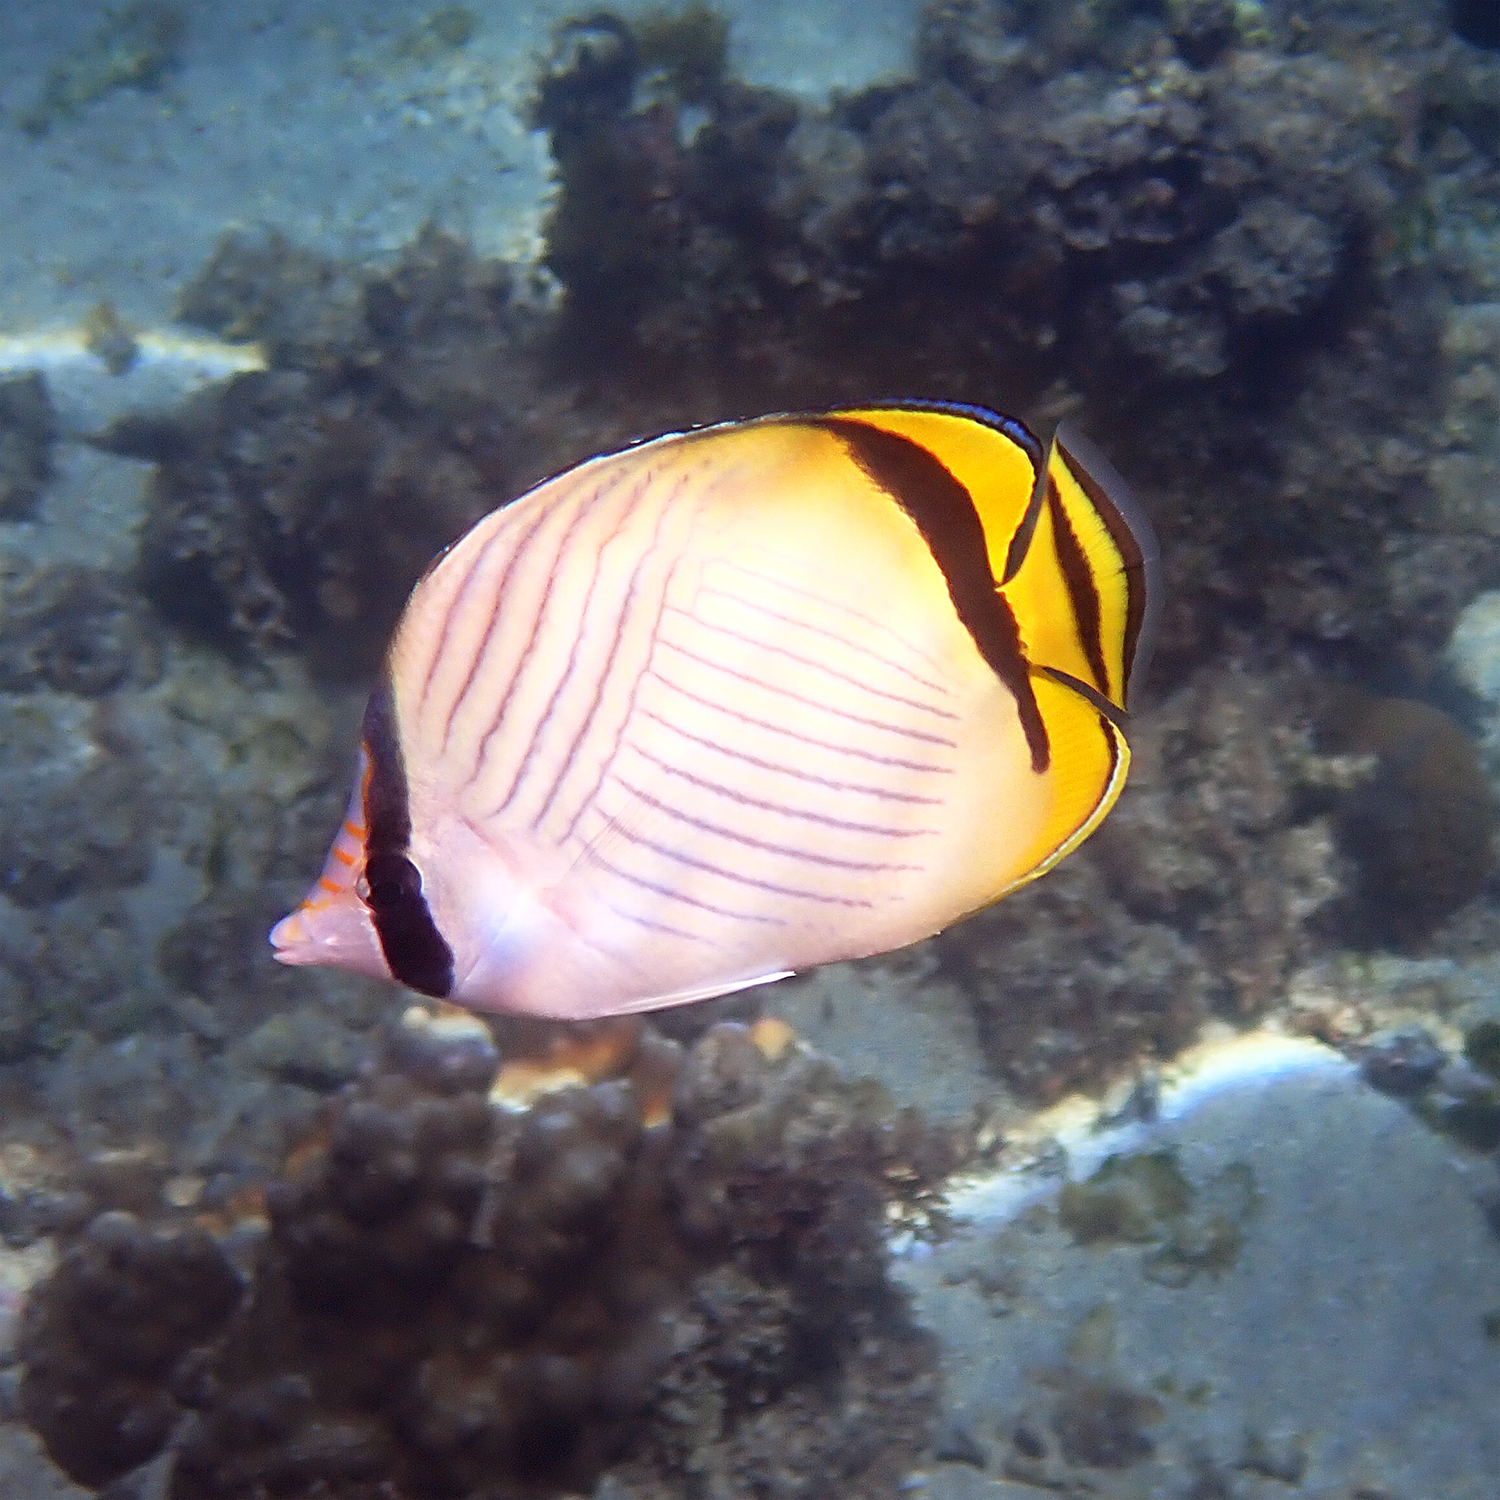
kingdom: Animalia
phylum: Chordata
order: Perciformes
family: Chaetodontidae
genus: Chaetodon
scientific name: Chaetodon vagabundus
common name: Vagabond butterflyfish
